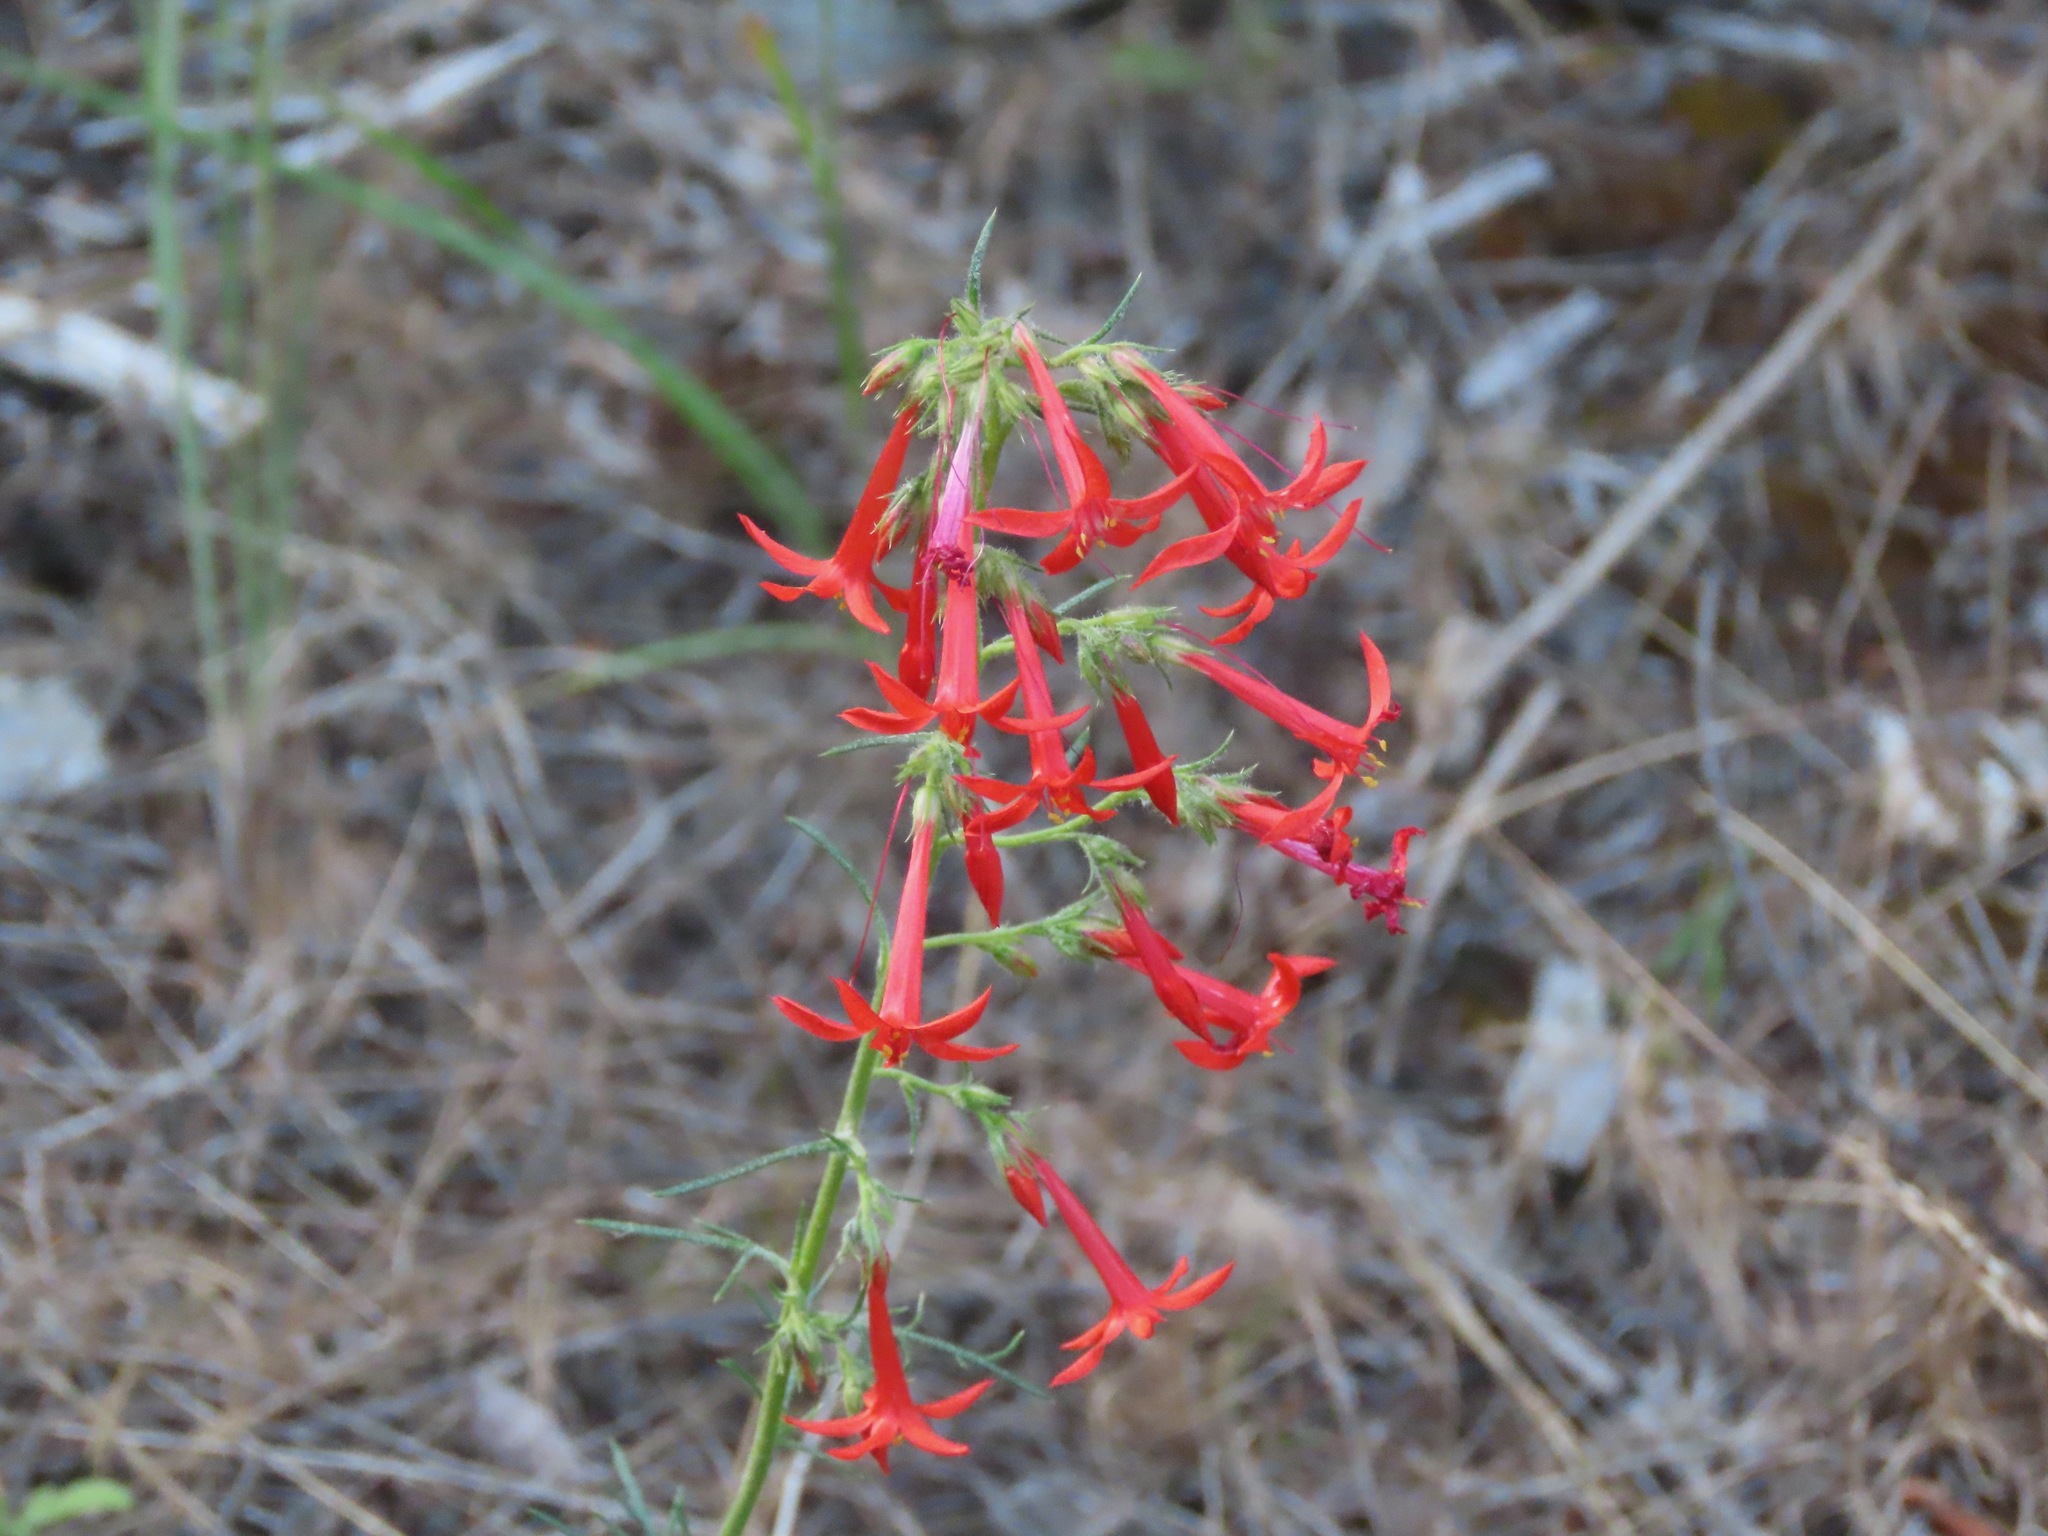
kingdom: Plantae
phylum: Tracheophyta
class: Magnoliopsida
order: Ericales
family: Polemoniaceae
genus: Ipomopsis
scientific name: Ipomopsis aggregata
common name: Scarlet gilia
